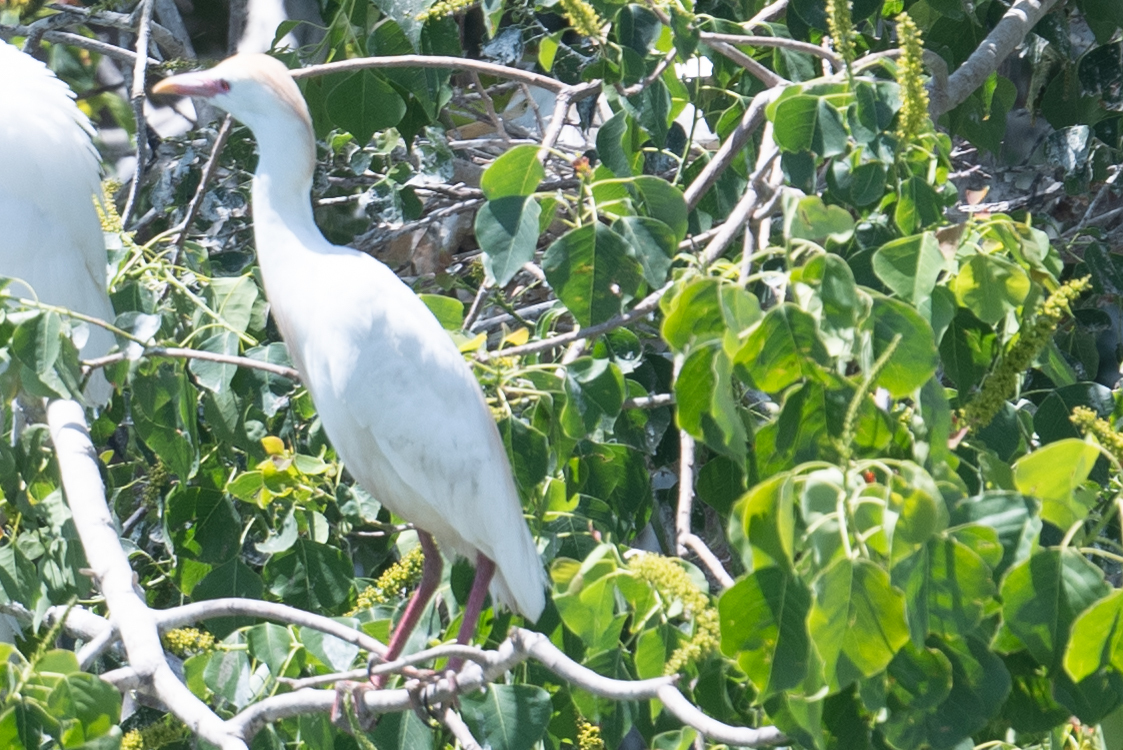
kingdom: Animalia
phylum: Chordata
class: Aves
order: Pelecaniformes
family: Ardeidae
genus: Bubulcus
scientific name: Bubulcus ibis
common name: Cattle egret
